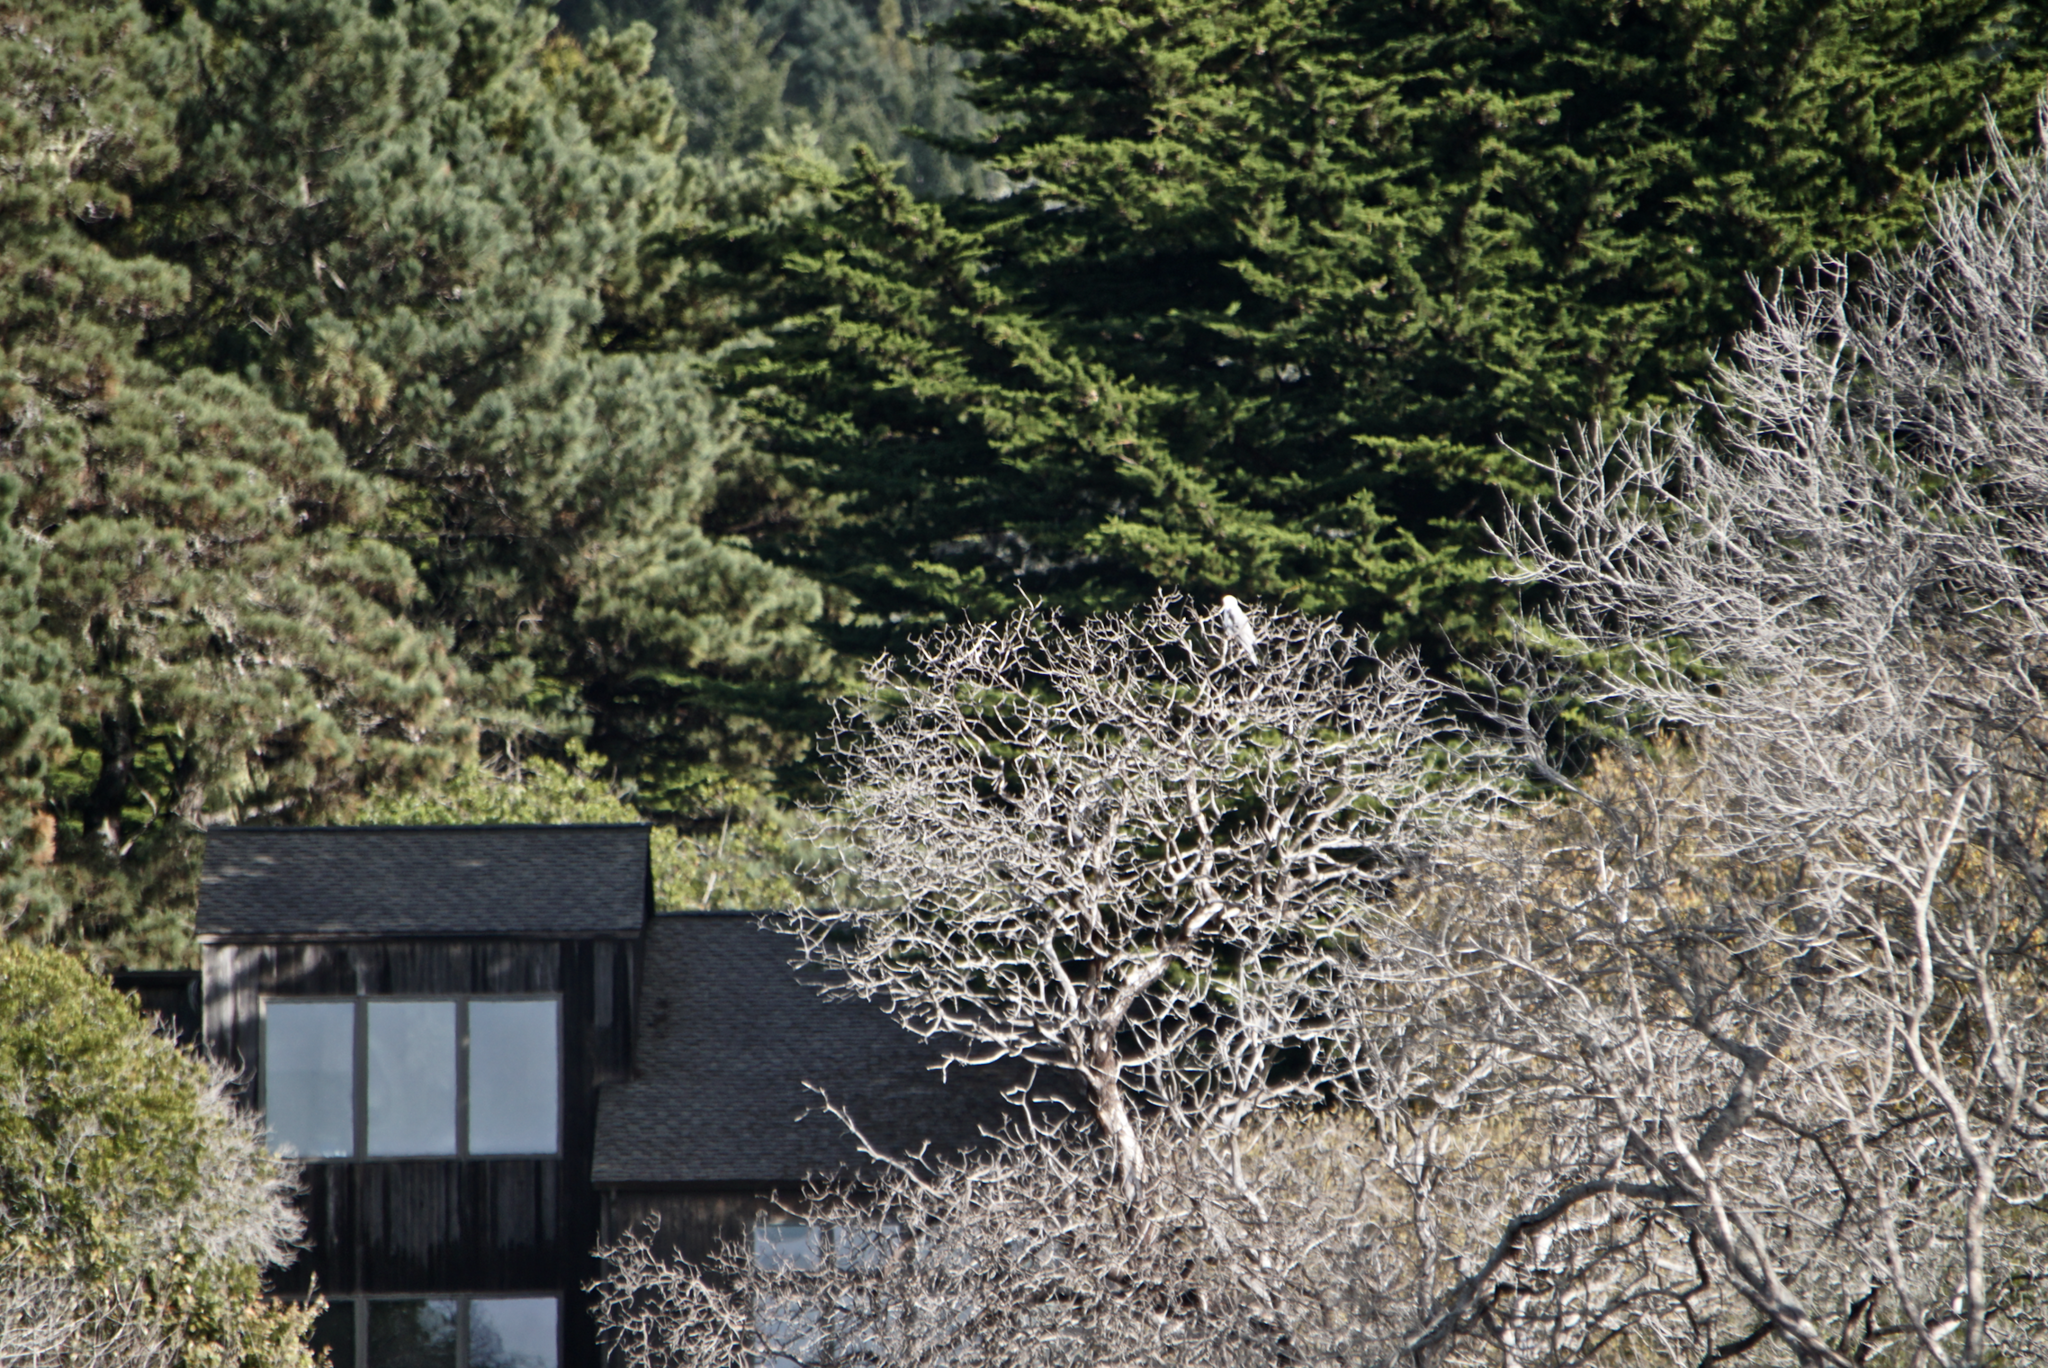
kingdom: Animalia
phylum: Chordata
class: Aves
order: Accipitriformes
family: Accipitridae
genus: Elanus
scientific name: Elanus leucurus
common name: White-tailed kite
